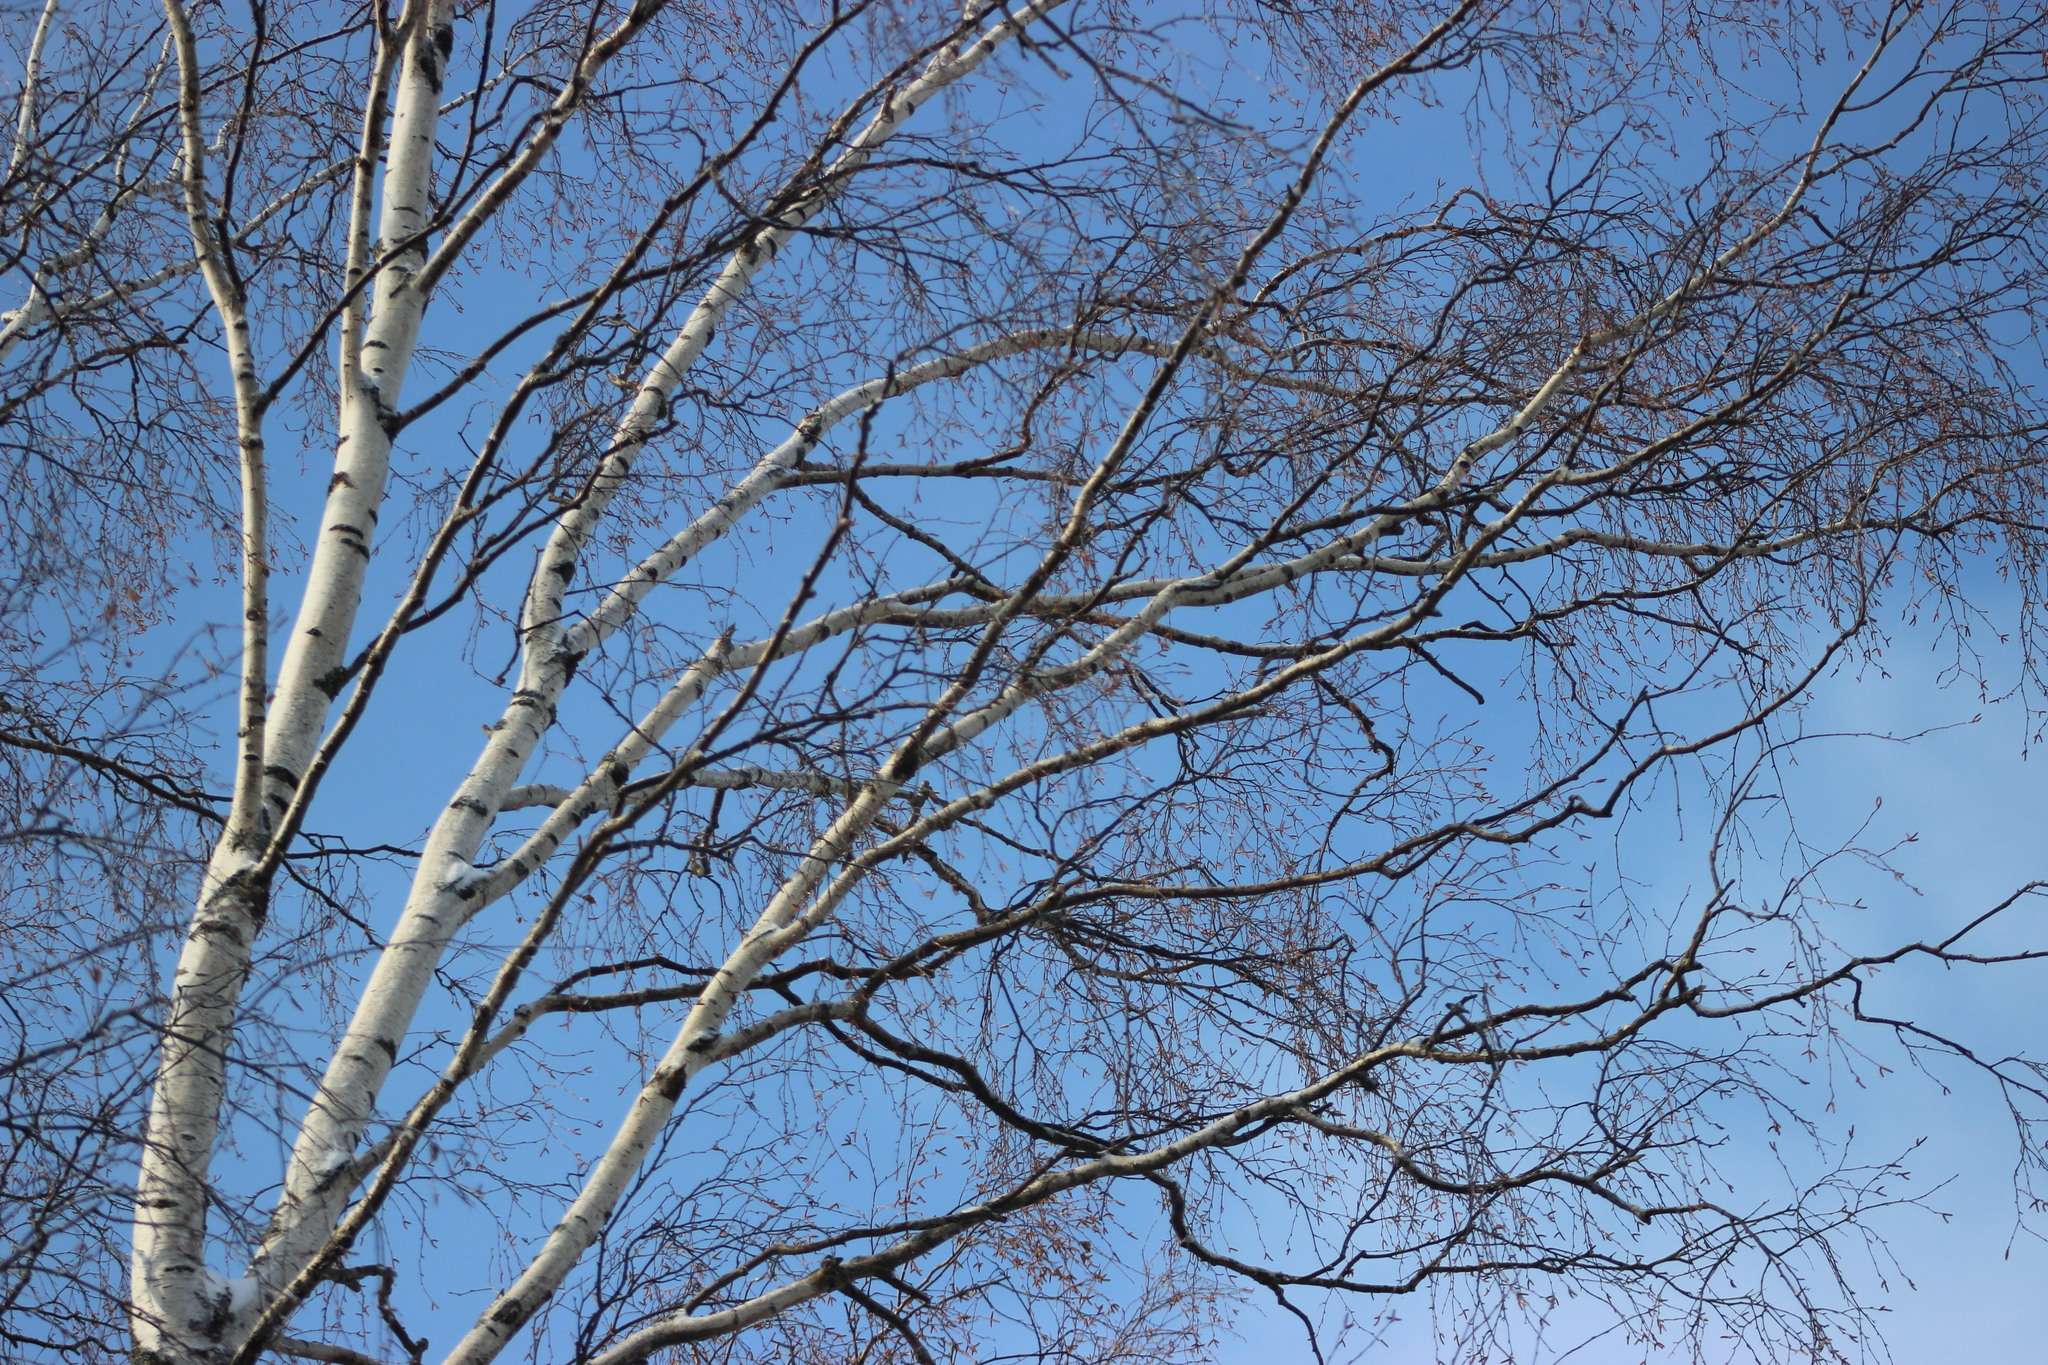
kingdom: Plantae
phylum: Tracheophyta
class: Magnoliopsida
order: Fagales
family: Betulaceae
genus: Betula
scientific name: Betula pubescens
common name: Downy birch
